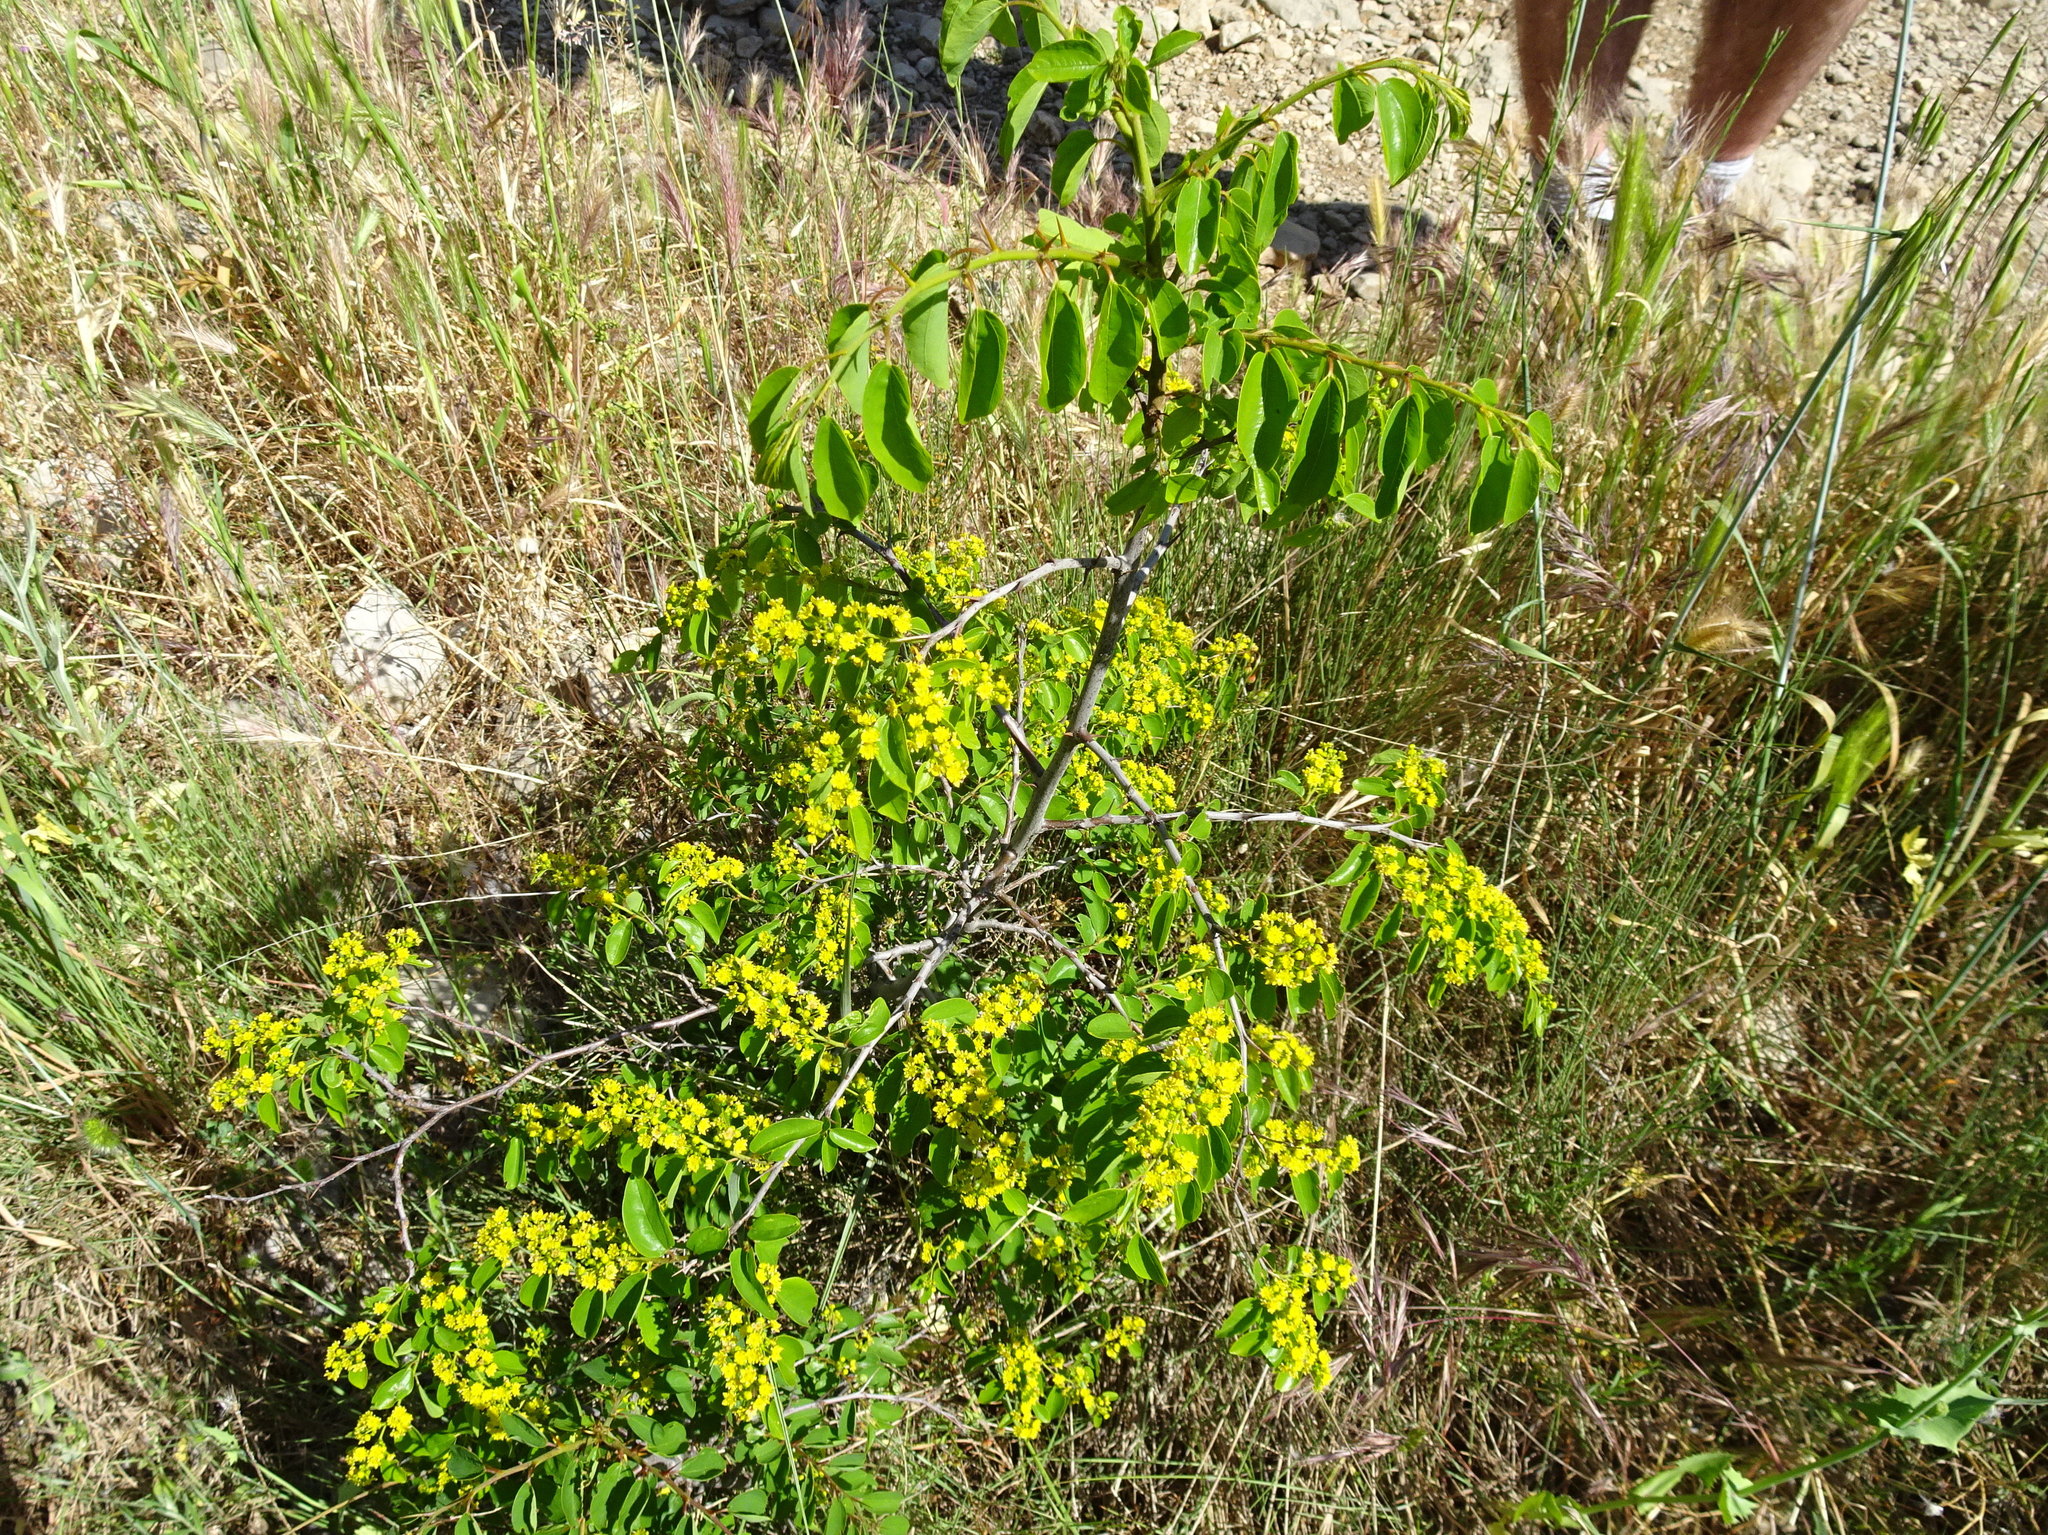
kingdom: Plantae
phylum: Tracheophyta
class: Magnoliopsida
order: Rosales
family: Rhamnaceae
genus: Paliurus
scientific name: Paliurus spina-christi
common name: Jeruselem thorn
